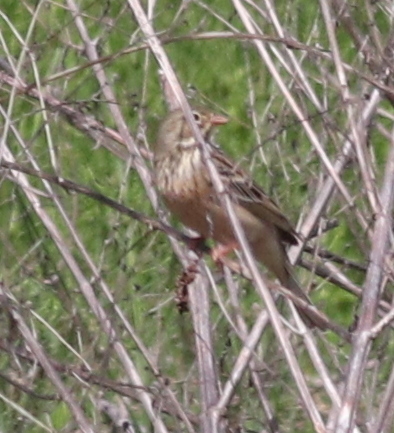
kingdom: Animalia
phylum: Chordata
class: Aves
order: Passeriformes
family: Emberizidae
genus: Emberiza
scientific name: Emberiza hortulana
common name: Ortolan bunting
